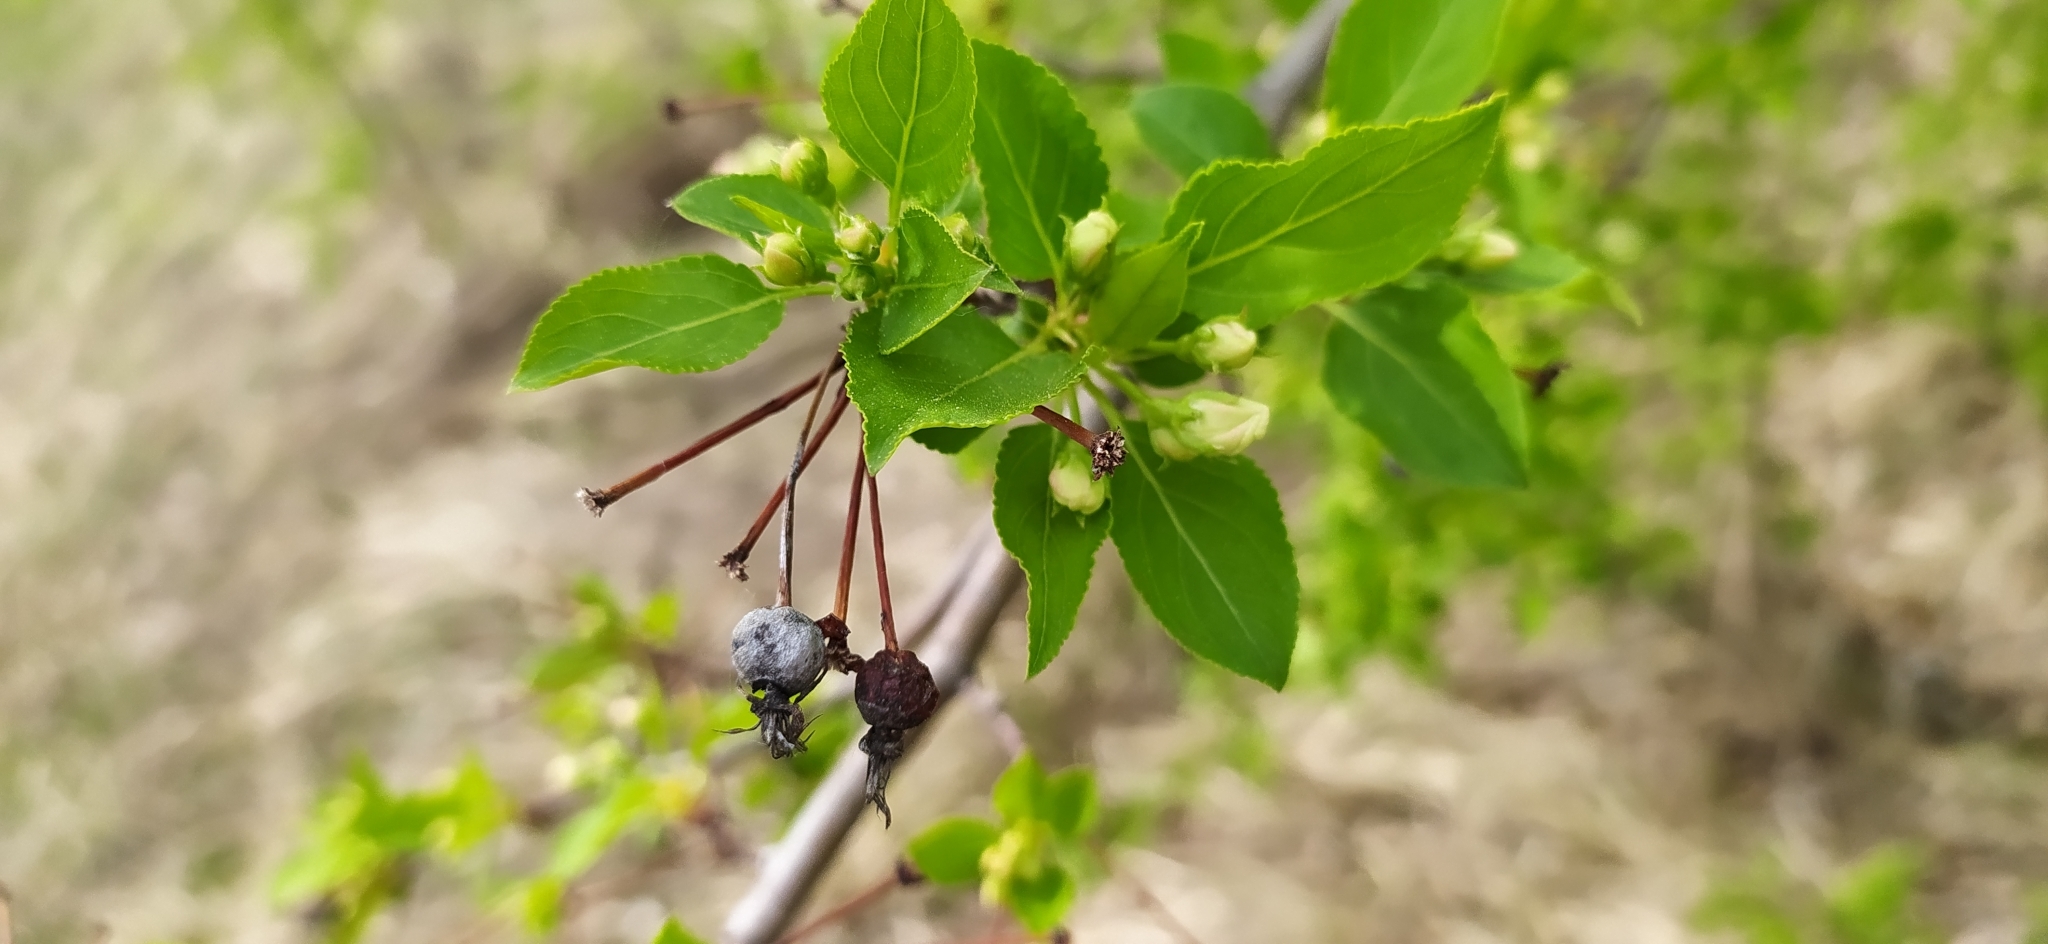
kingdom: Plantae
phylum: Tracheophyta
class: Magnoliopsida
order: Rosales
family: Rosaceae
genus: Malus
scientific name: Malus baccata
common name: Siberian crab
